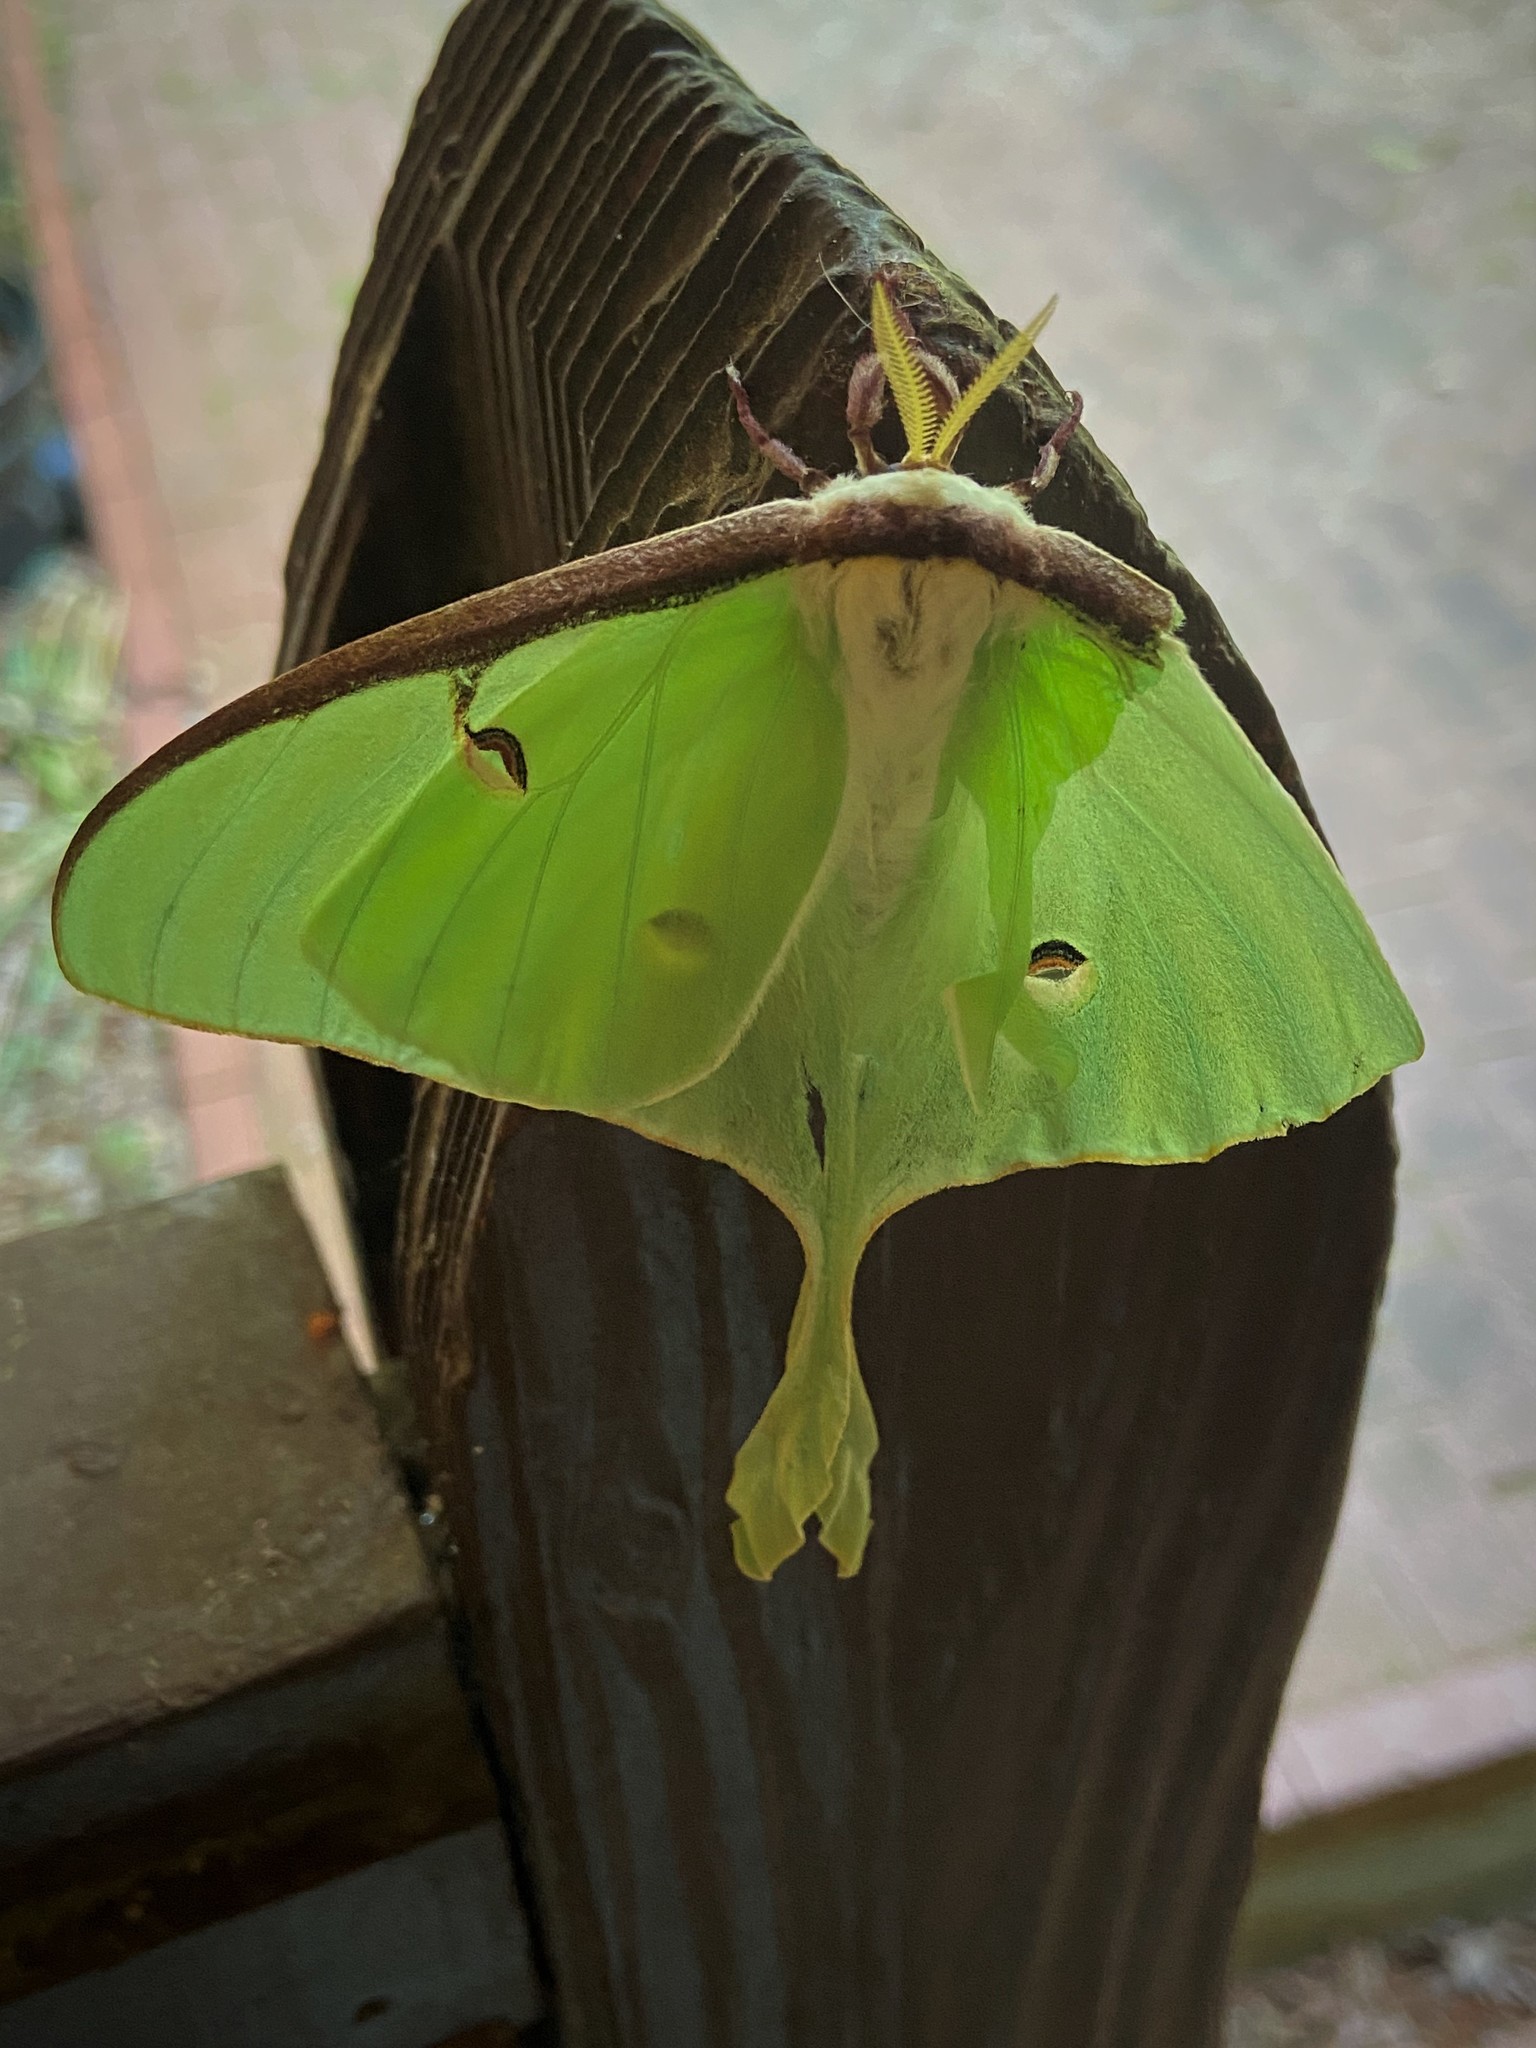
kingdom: Animalia
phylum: Arthropoda
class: Insecta
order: Lepidoptera
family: Saturniidae
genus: Actias
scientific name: Actias luna
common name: Luna moth
